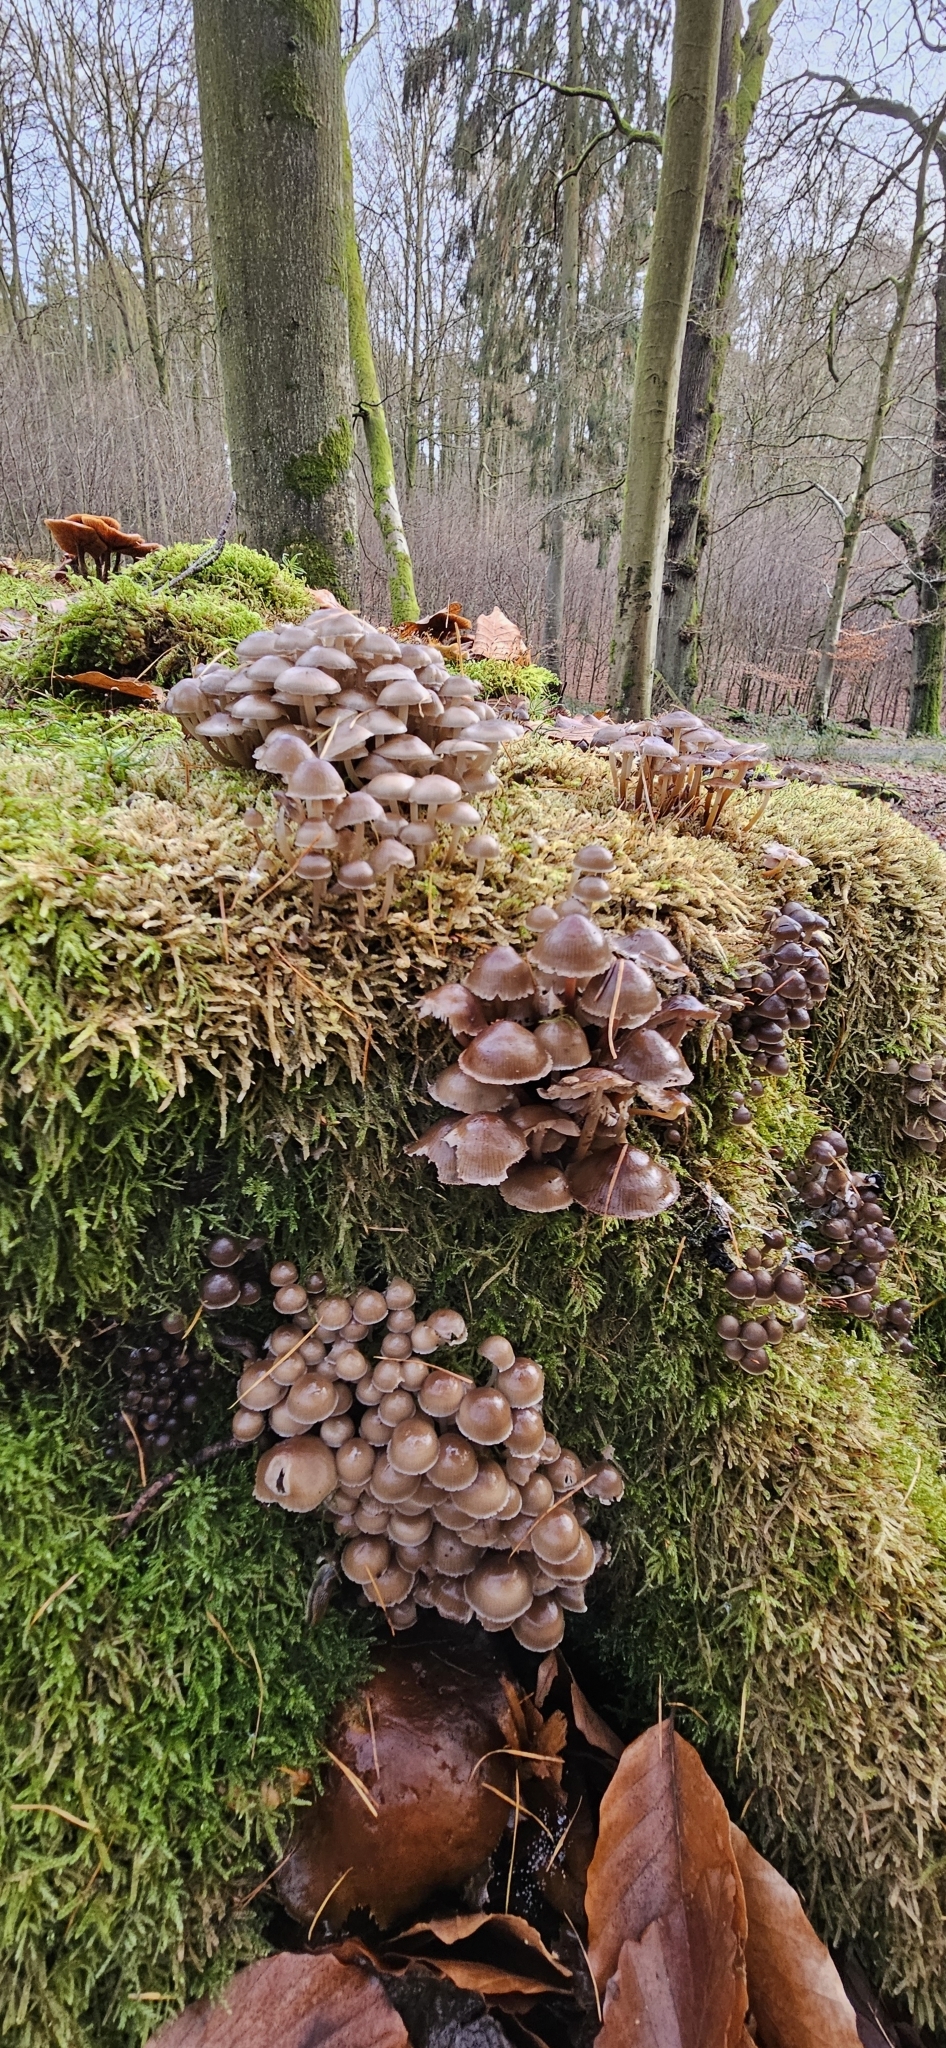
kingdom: Fungi
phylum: Basidiomycota
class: Agaricomycetes
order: Agaricales
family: Mycenaceae
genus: Mycena
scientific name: Mycena tintinnabulum
